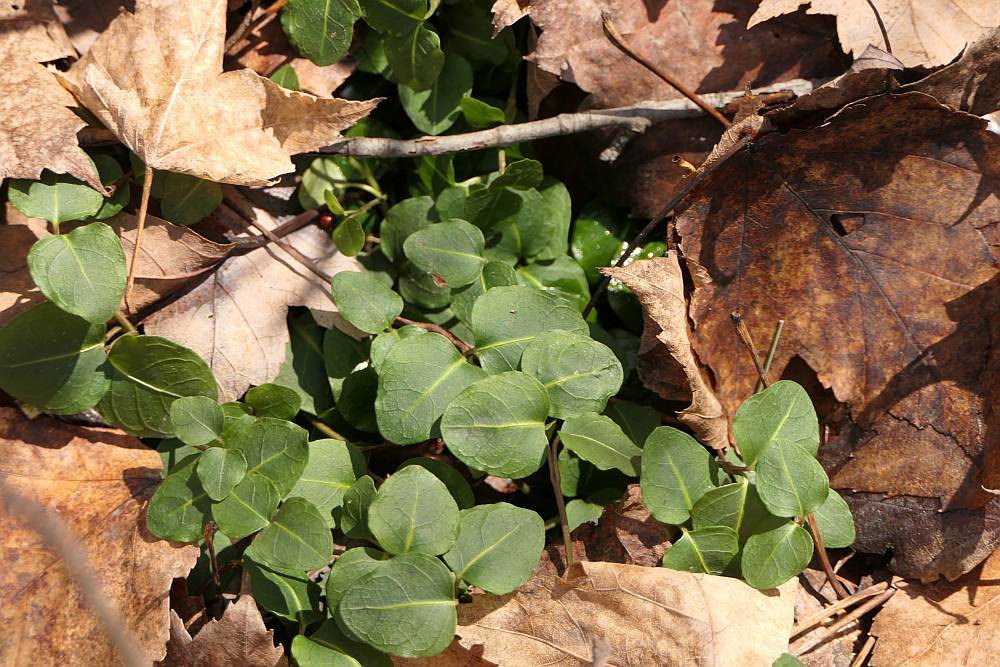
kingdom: Plantae
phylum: Tracheophyta
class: Magnoliopsida
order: Gentianales
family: Rubiaceae
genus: Mitchella
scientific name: Mitchella repens
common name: Partridge-berry
